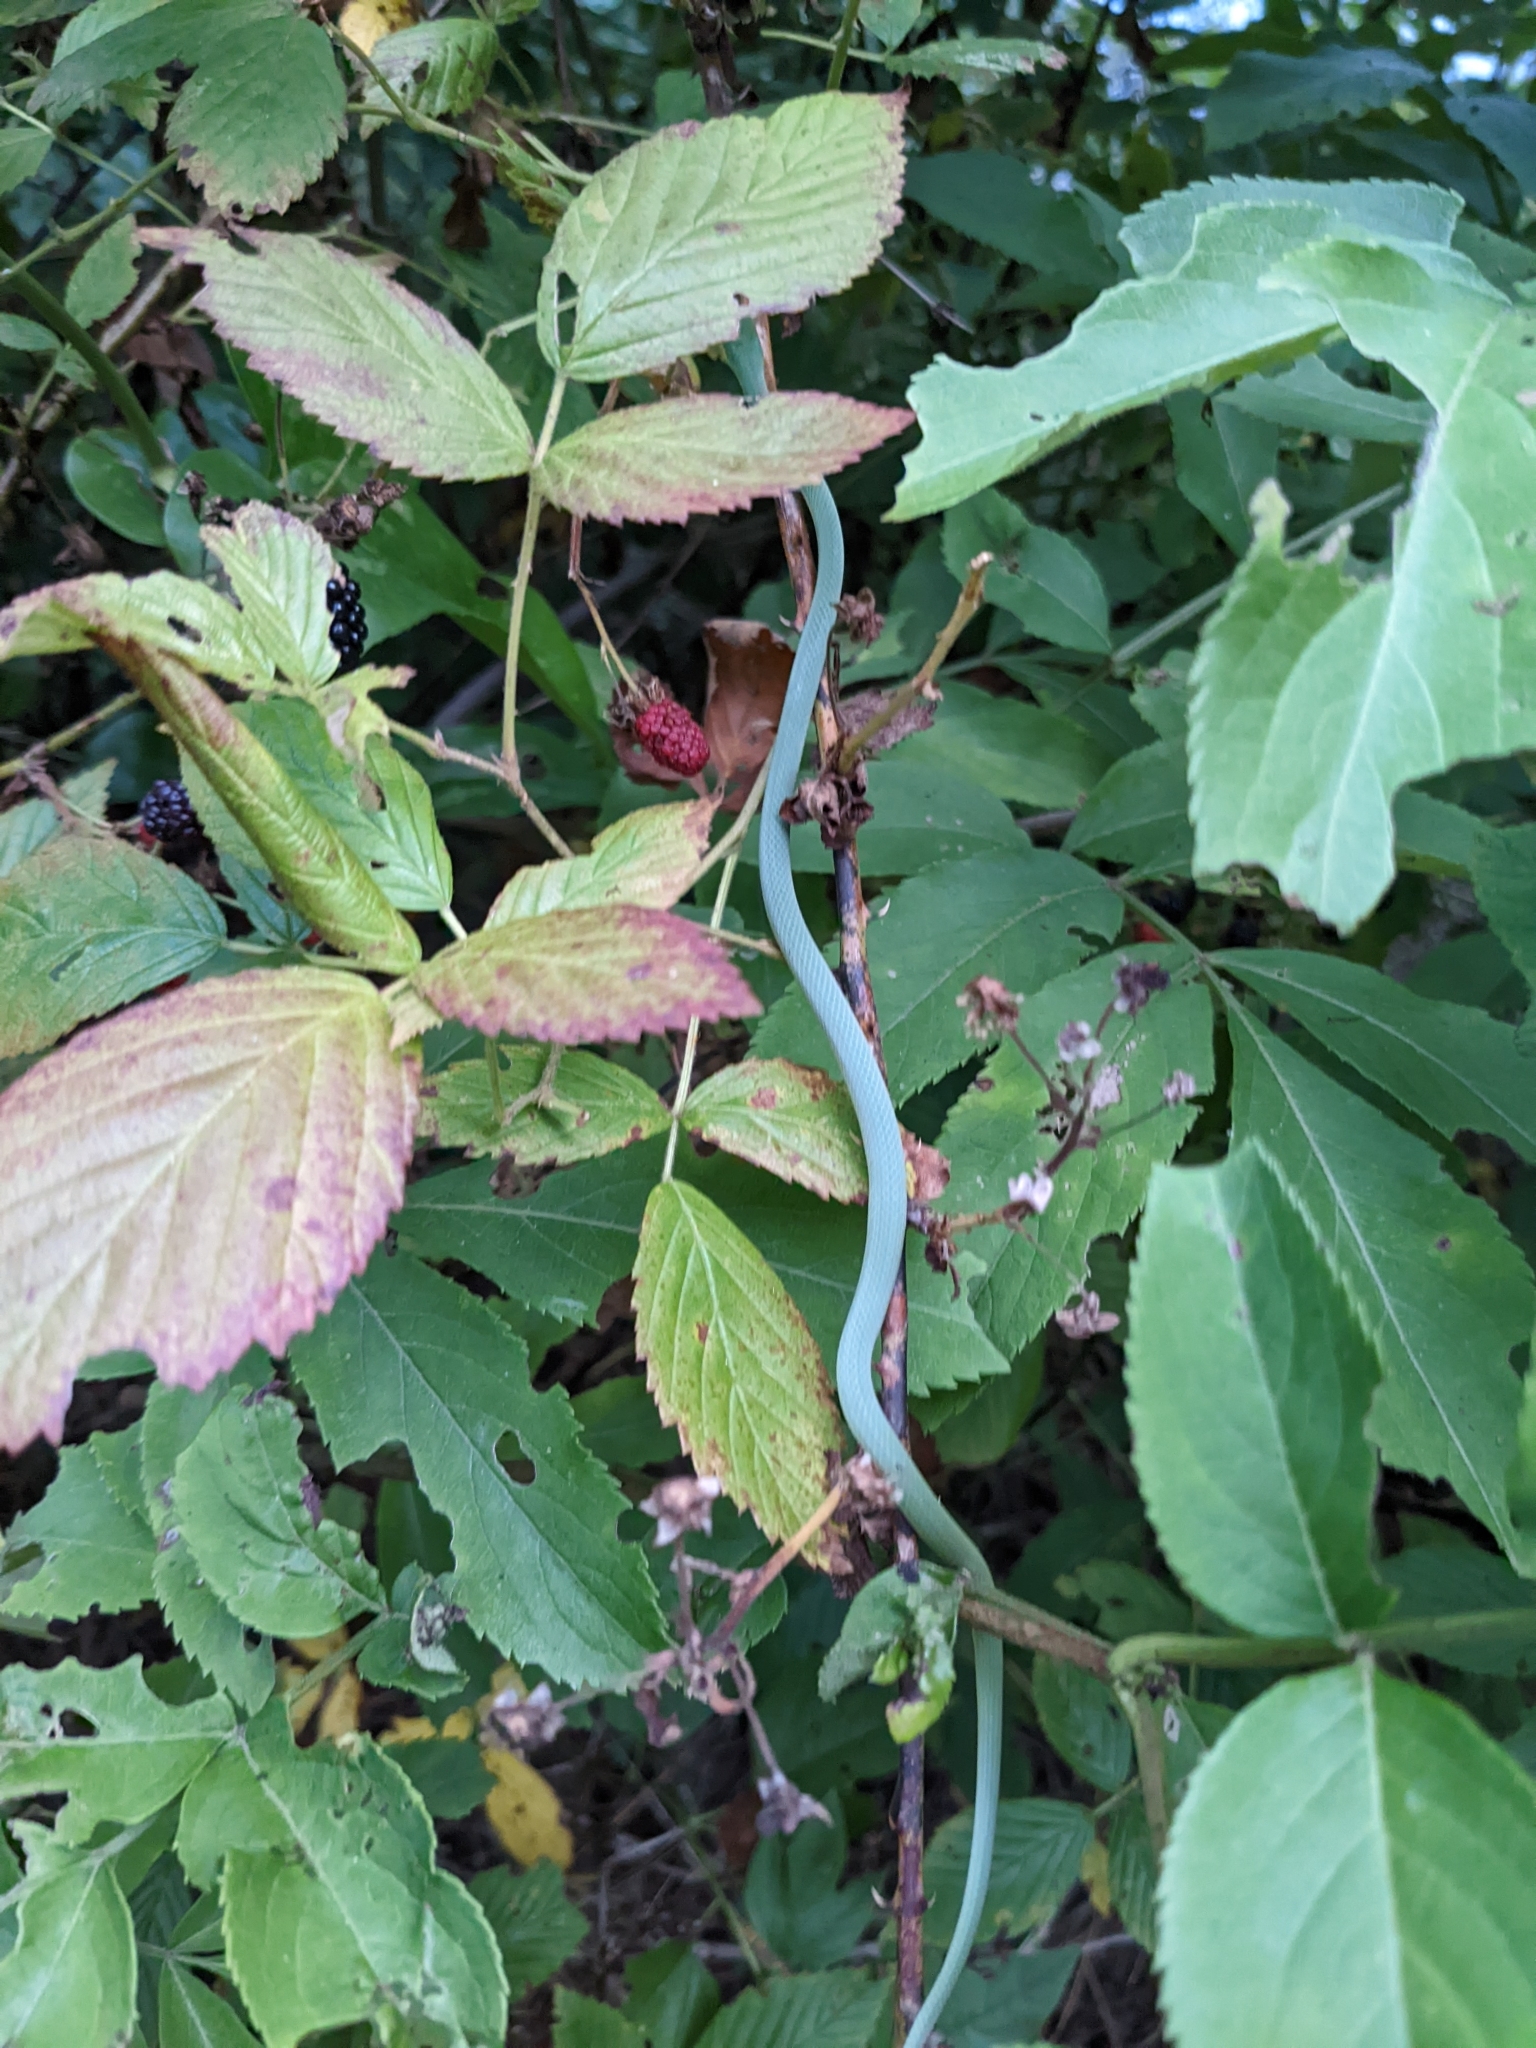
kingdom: Animalia
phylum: Chordata
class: Squamata
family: Colubridae
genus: Opheodrys
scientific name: Opheodrys aestivus
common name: Rough greensnake
